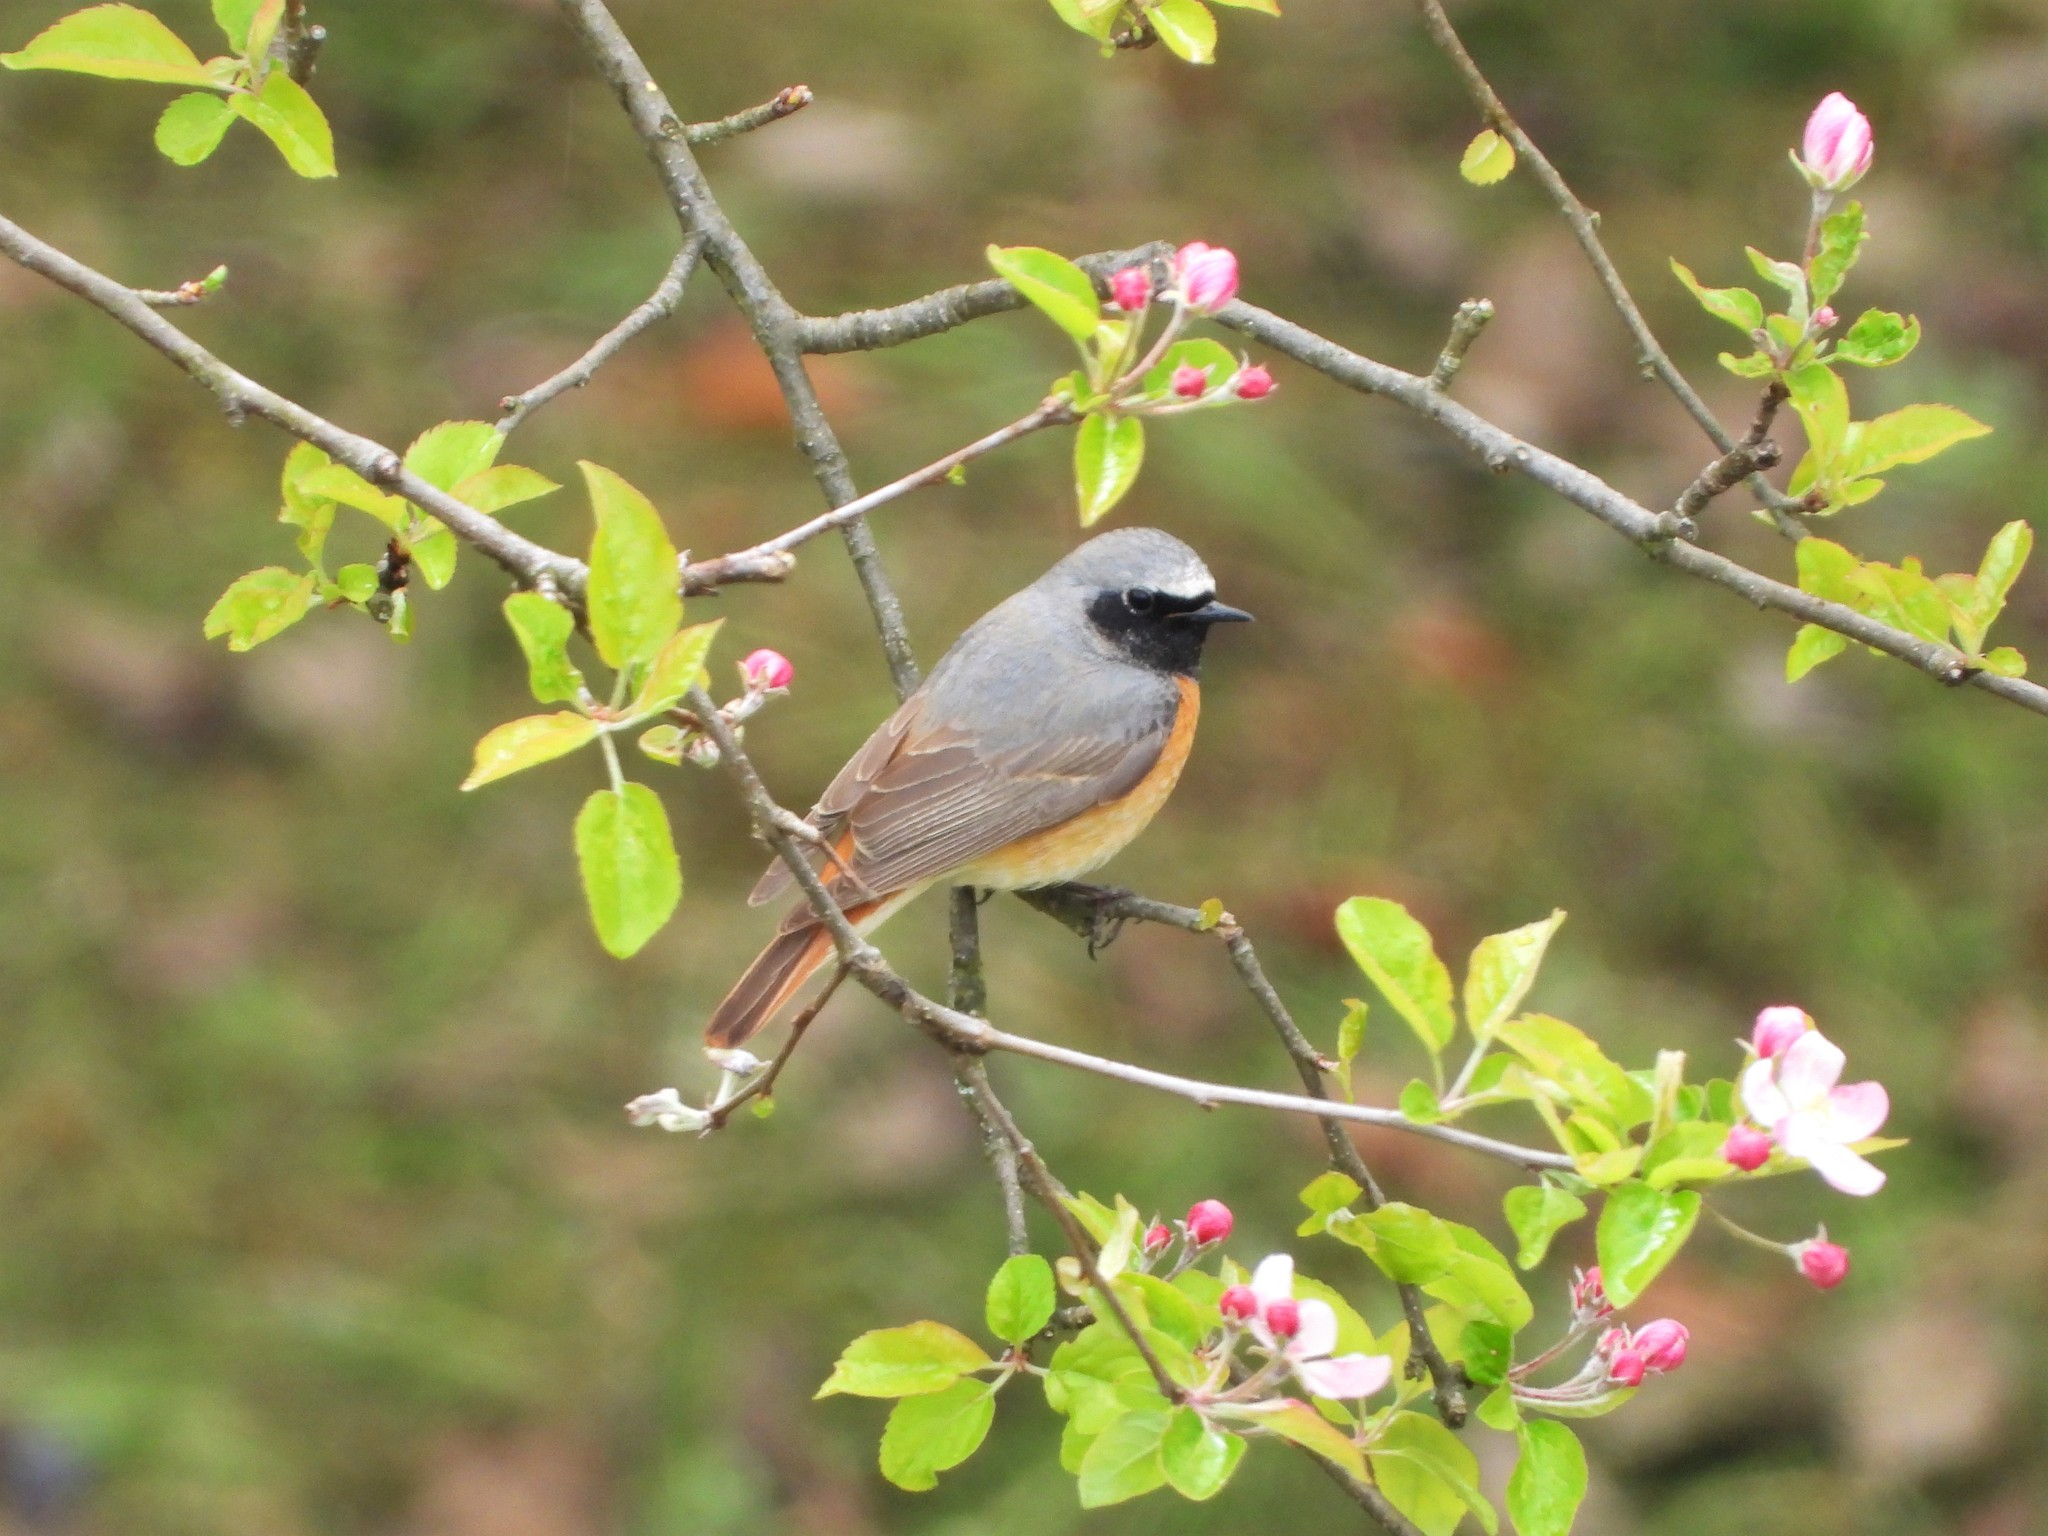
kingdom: Animalia
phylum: Chordata
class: Aves
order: Passeriformes
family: Muscicapidae
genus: Phoenicurus
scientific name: Phoenicurus phoenicurus
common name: Common redstart
